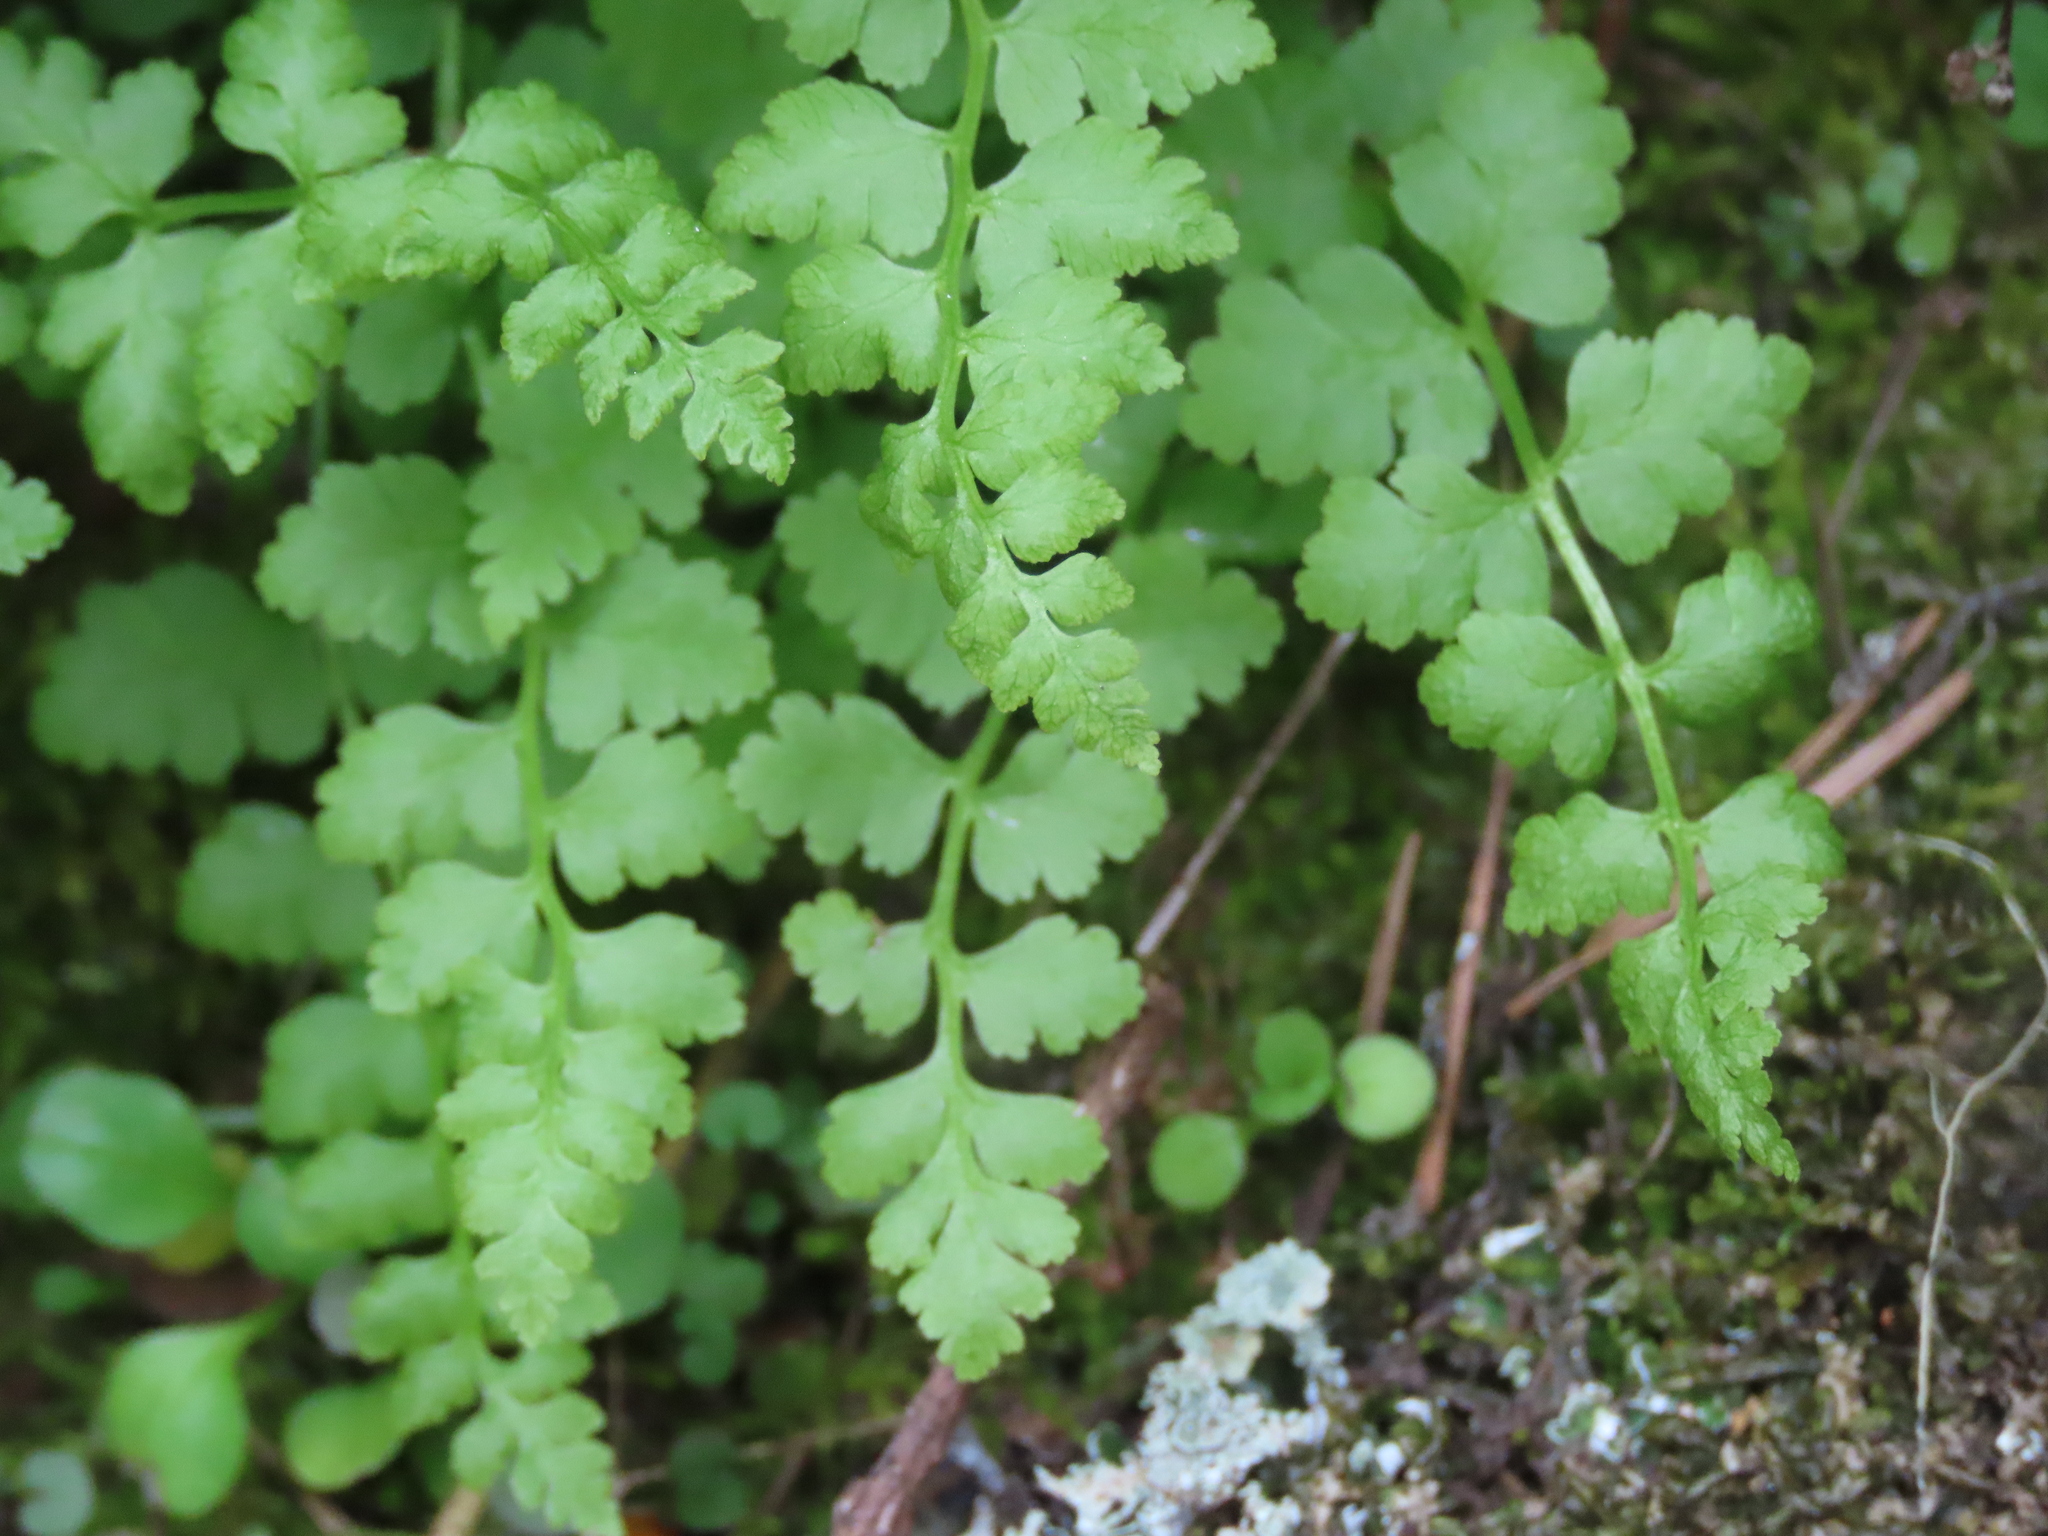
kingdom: Plantae
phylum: Tracheophyta
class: Polypodiopsida
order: Polypodiales
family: Cystopteridaceae
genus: Cystopteris
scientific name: Cystopteris fragilis
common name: Brittle bladder fern
